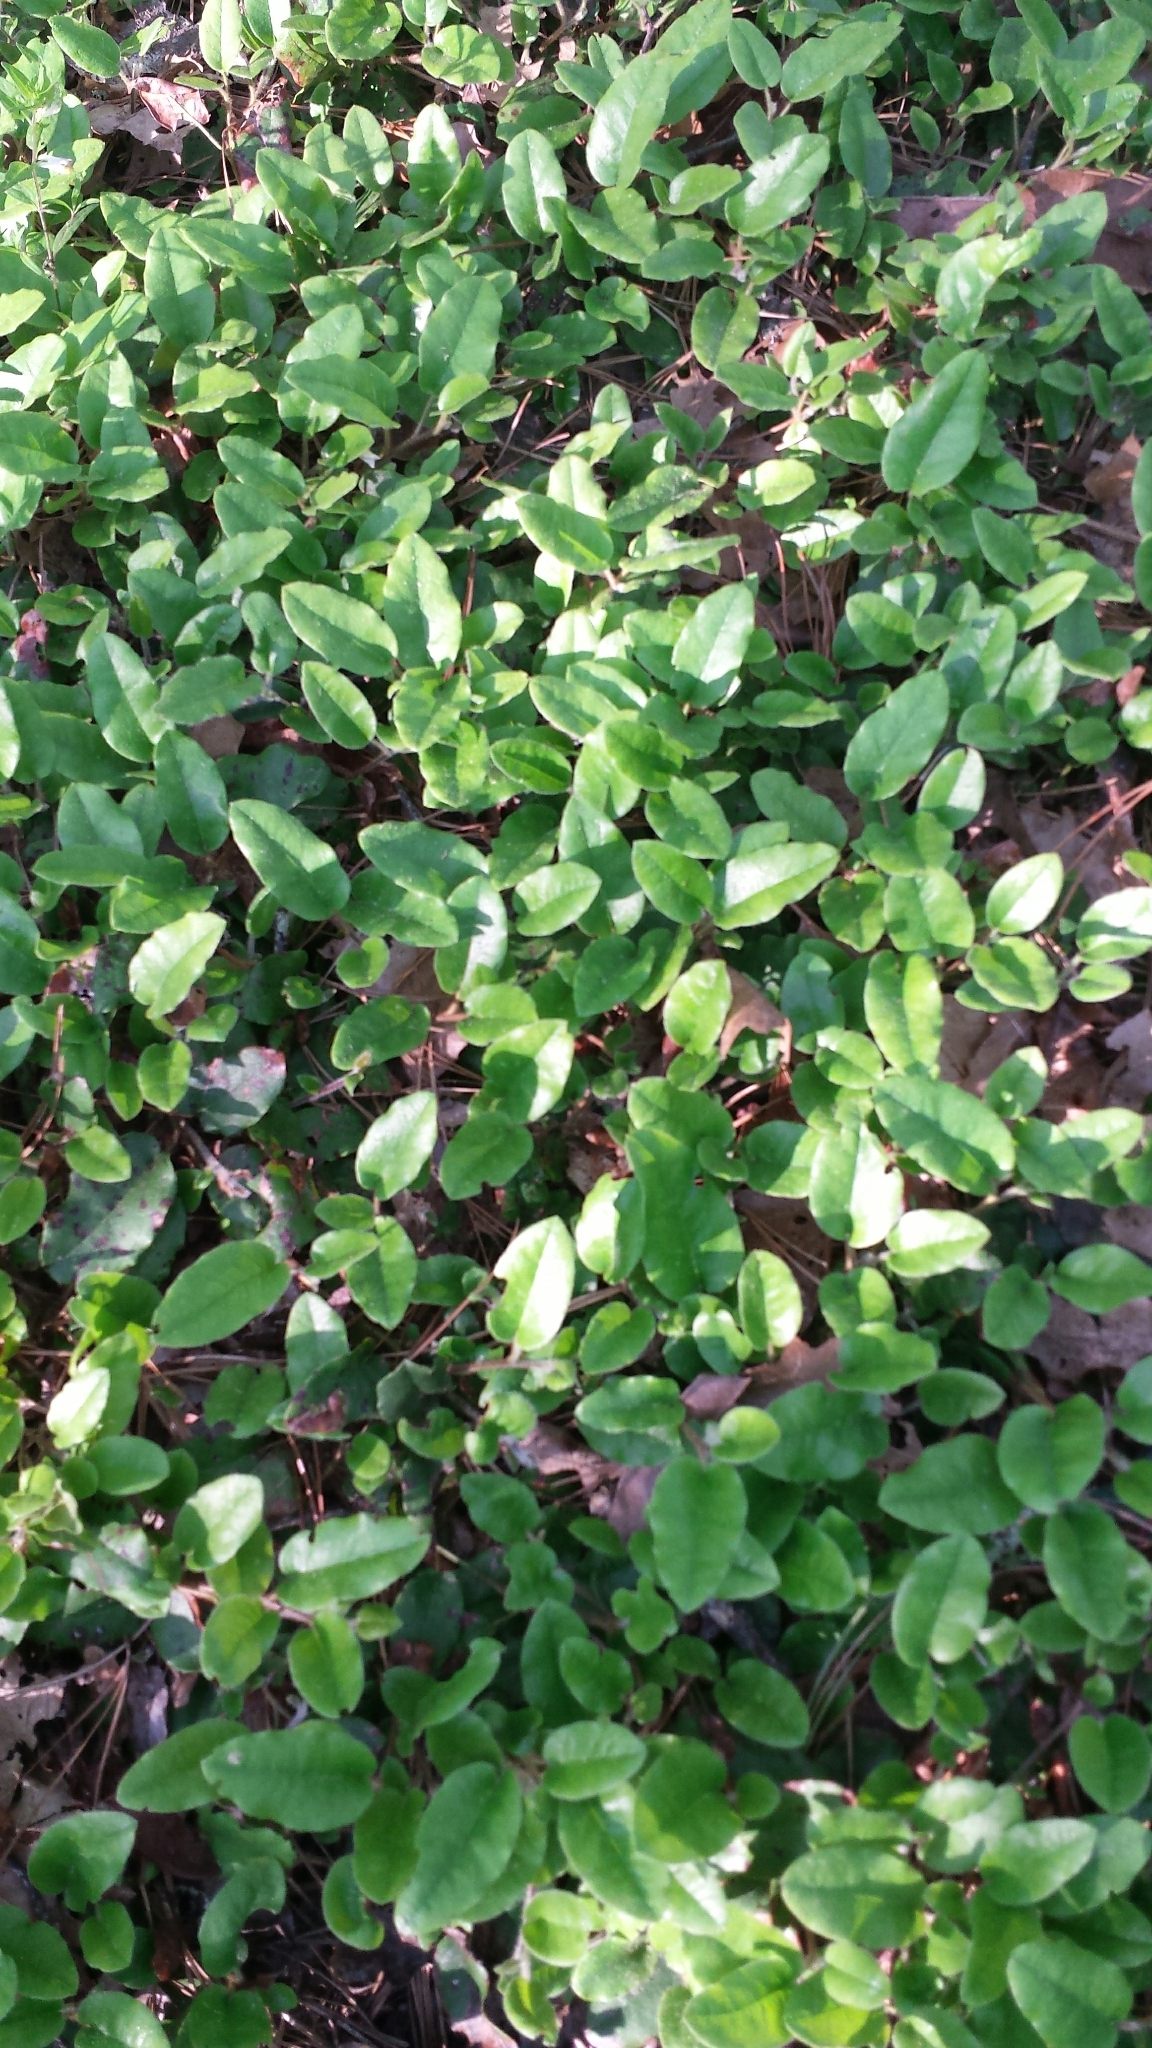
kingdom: Plantae
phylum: Tracheophyta
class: Magnoliopsida
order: Ericales
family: Ericaceae
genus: Epigaea
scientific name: Epigaea repens
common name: Gravelroot
